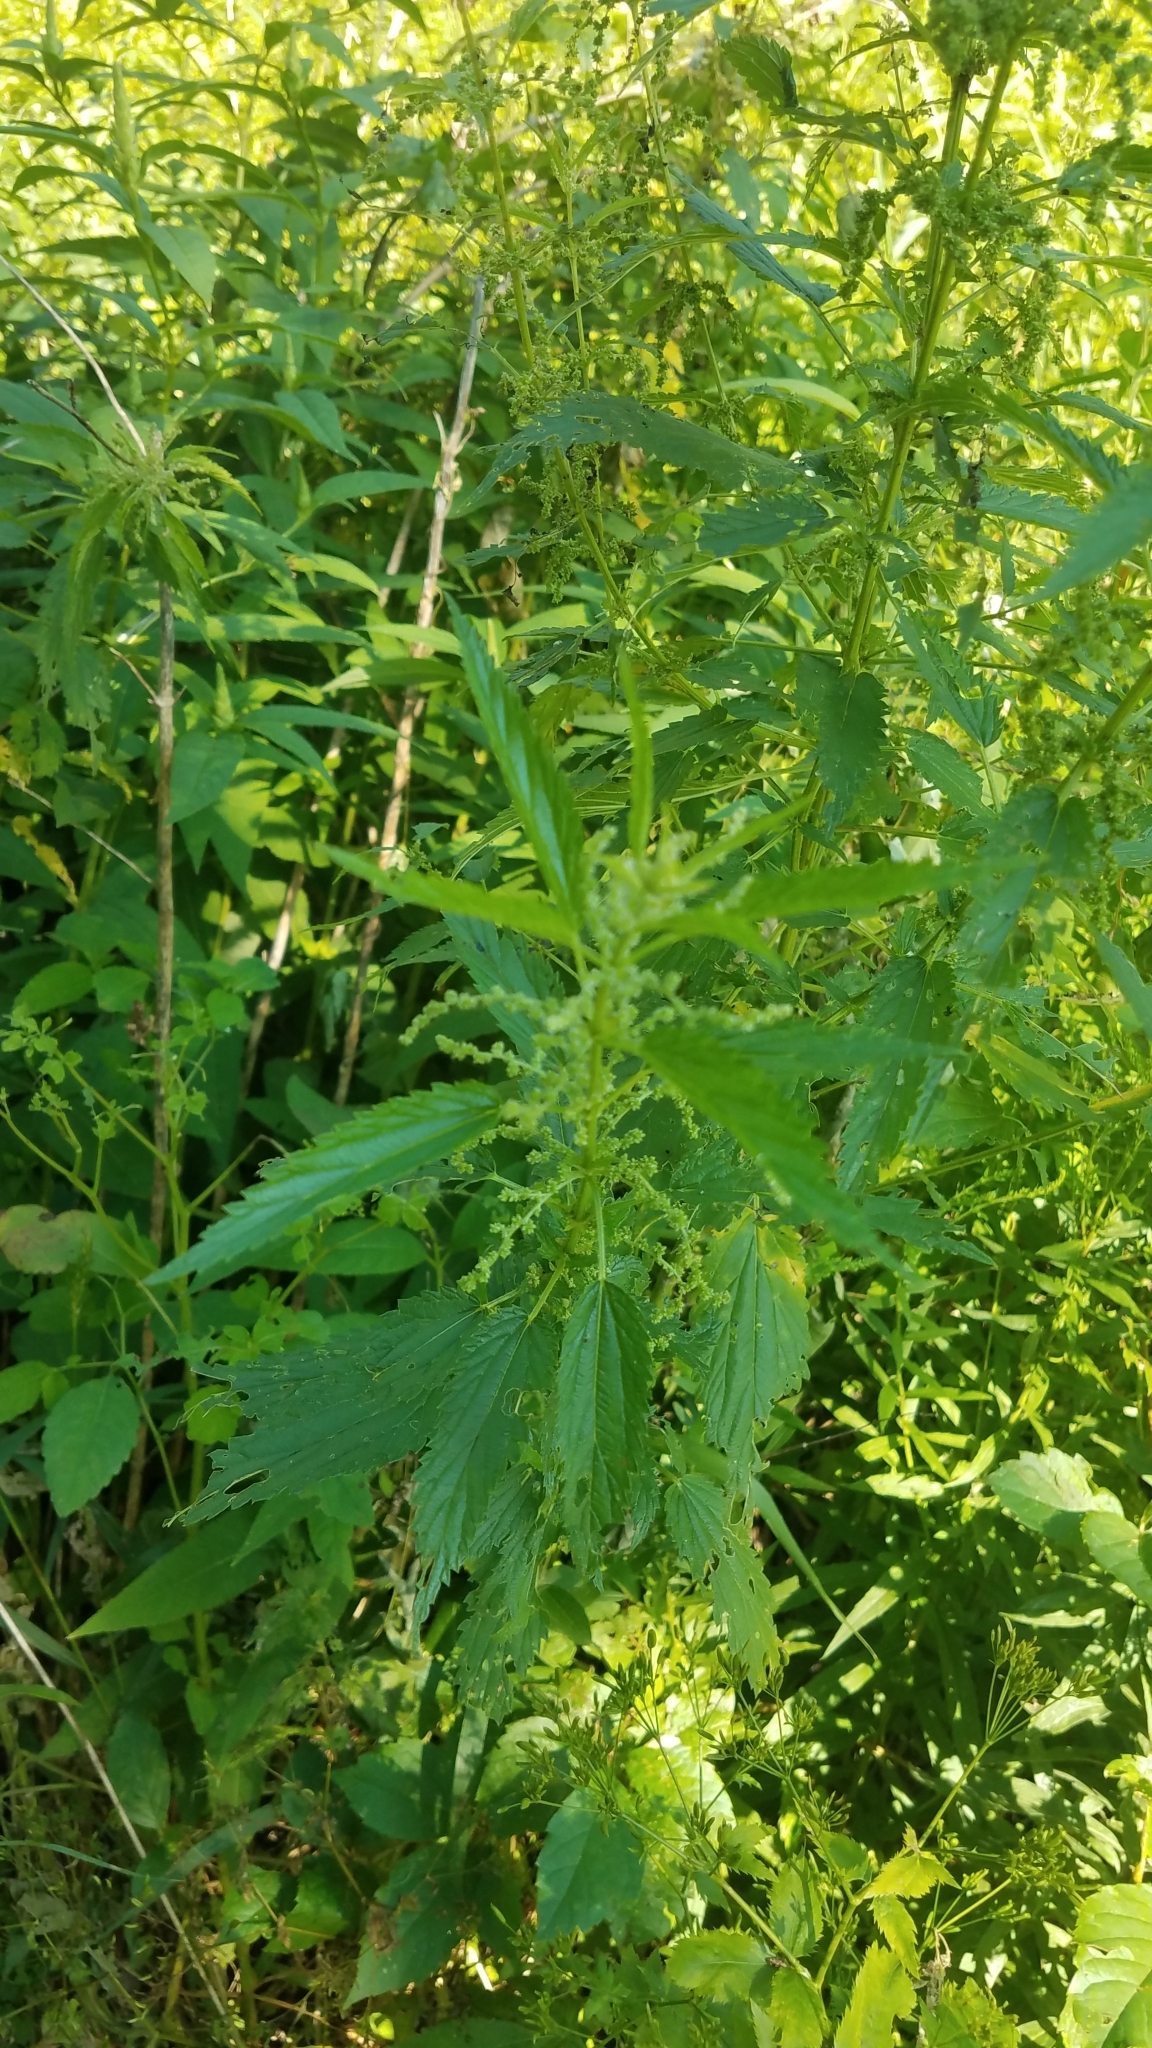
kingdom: Plantae
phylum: Tracheophyta
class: Magnoliopsida
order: Rosales
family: Urticaceae
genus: Urtica
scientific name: Urtica dioica
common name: Common nettle
